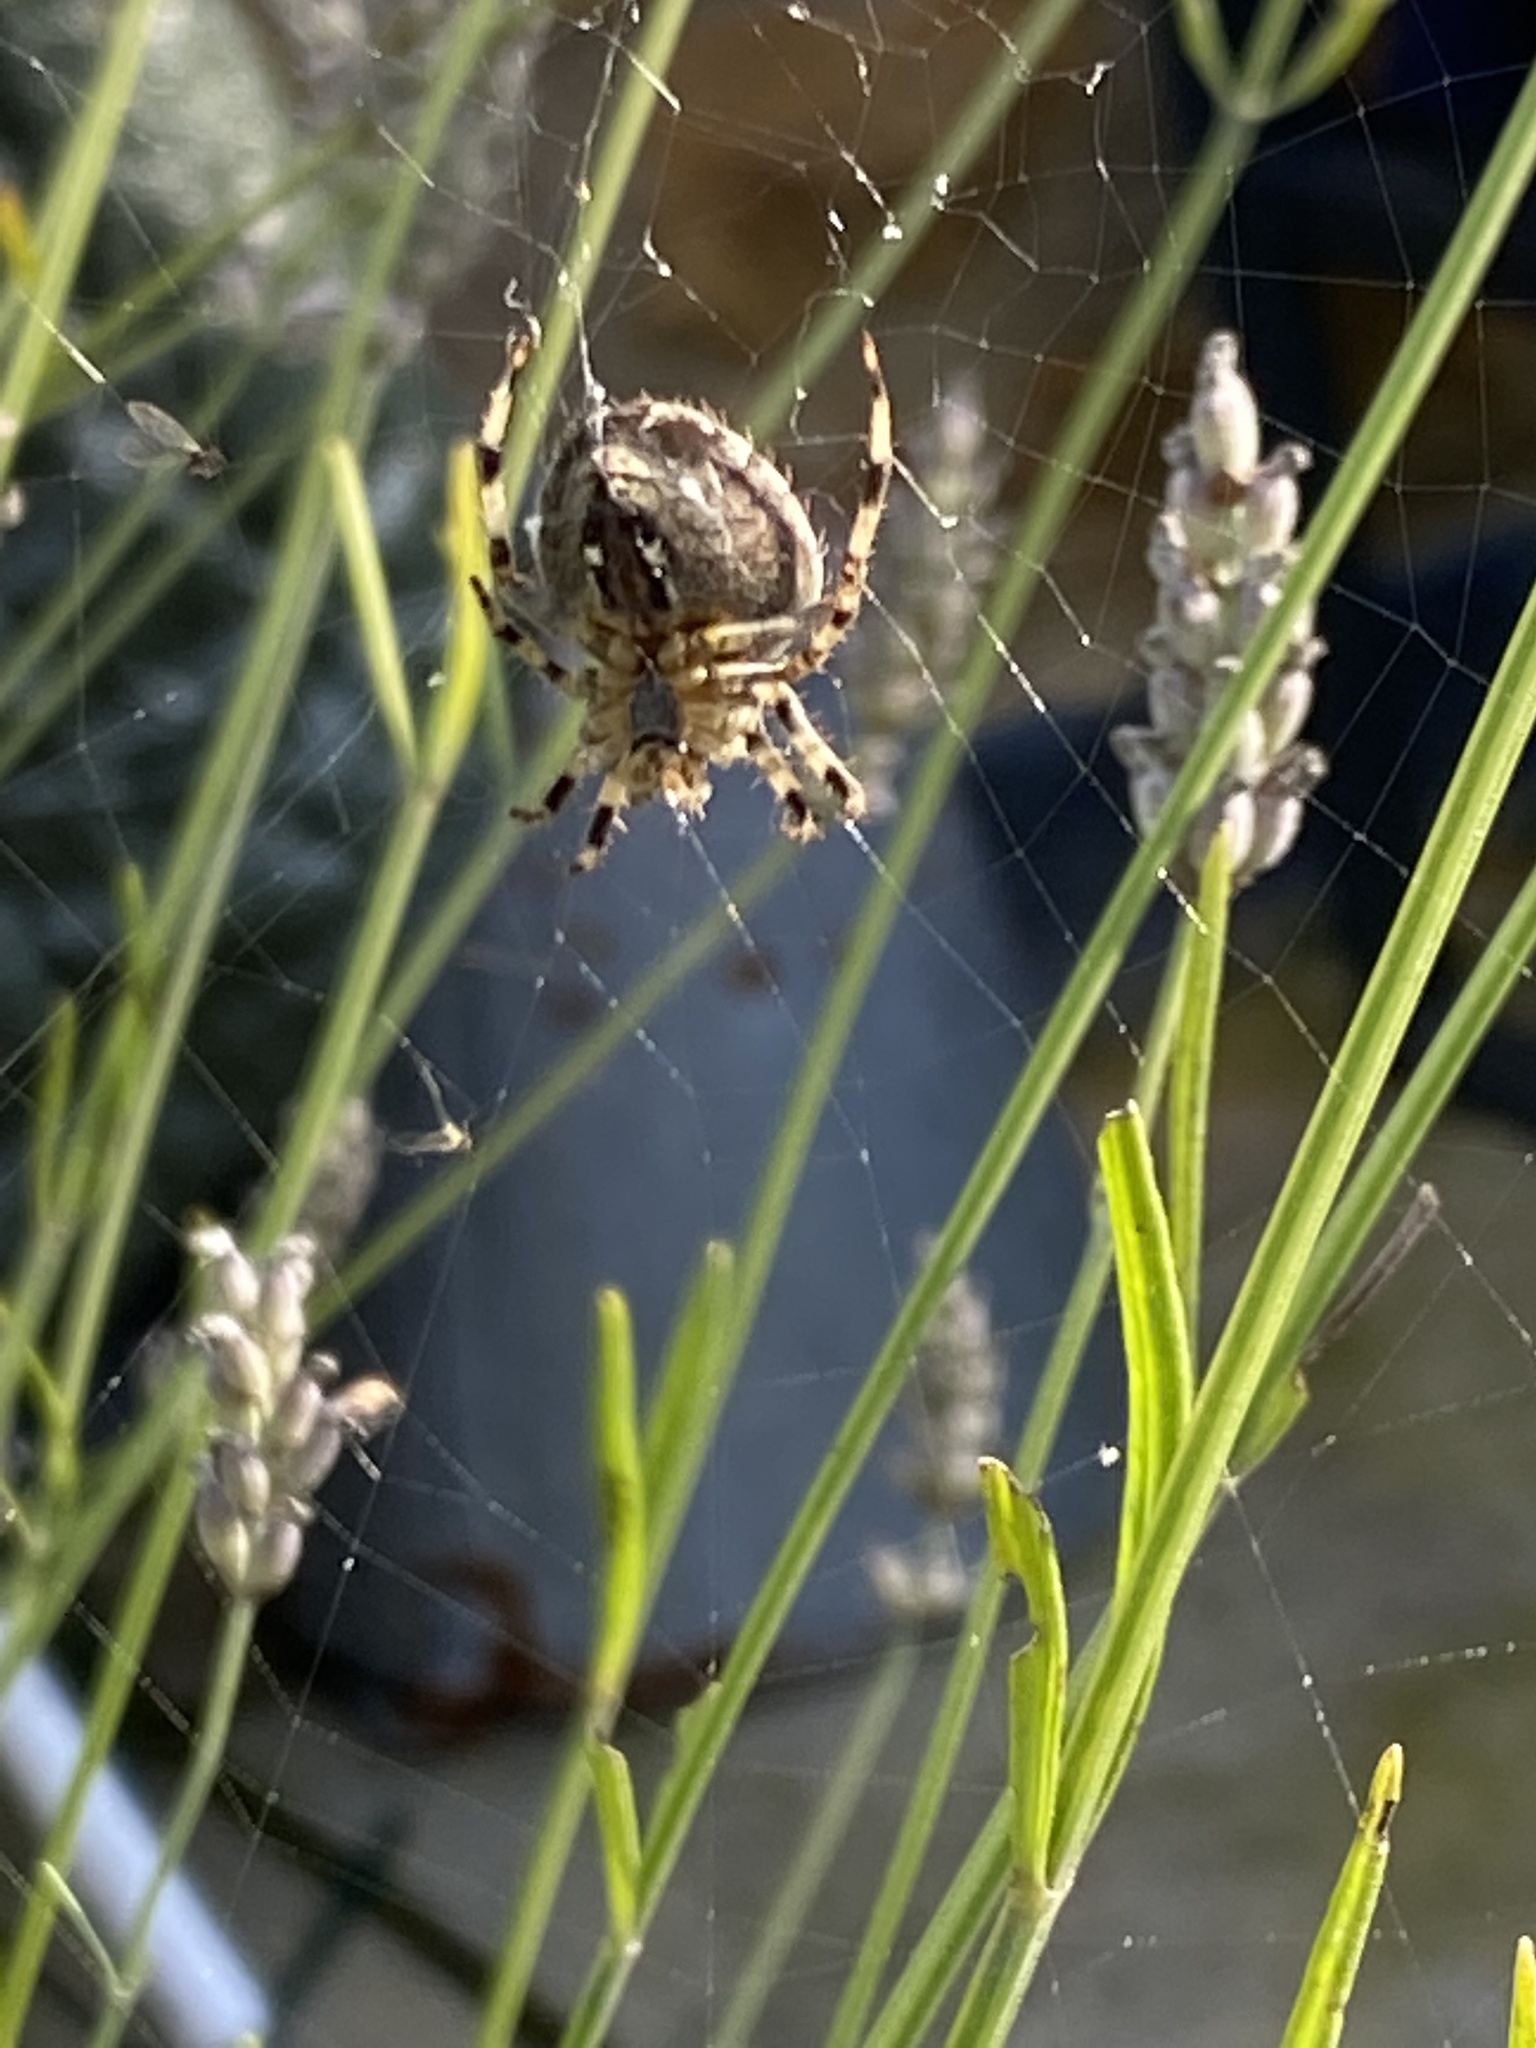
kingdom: Animalia
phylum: Arthropoda
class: Arachnida
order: Araneae
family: Araneidae
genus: Araneus
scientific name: Araneus diadematus
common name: Cross orbweaver
